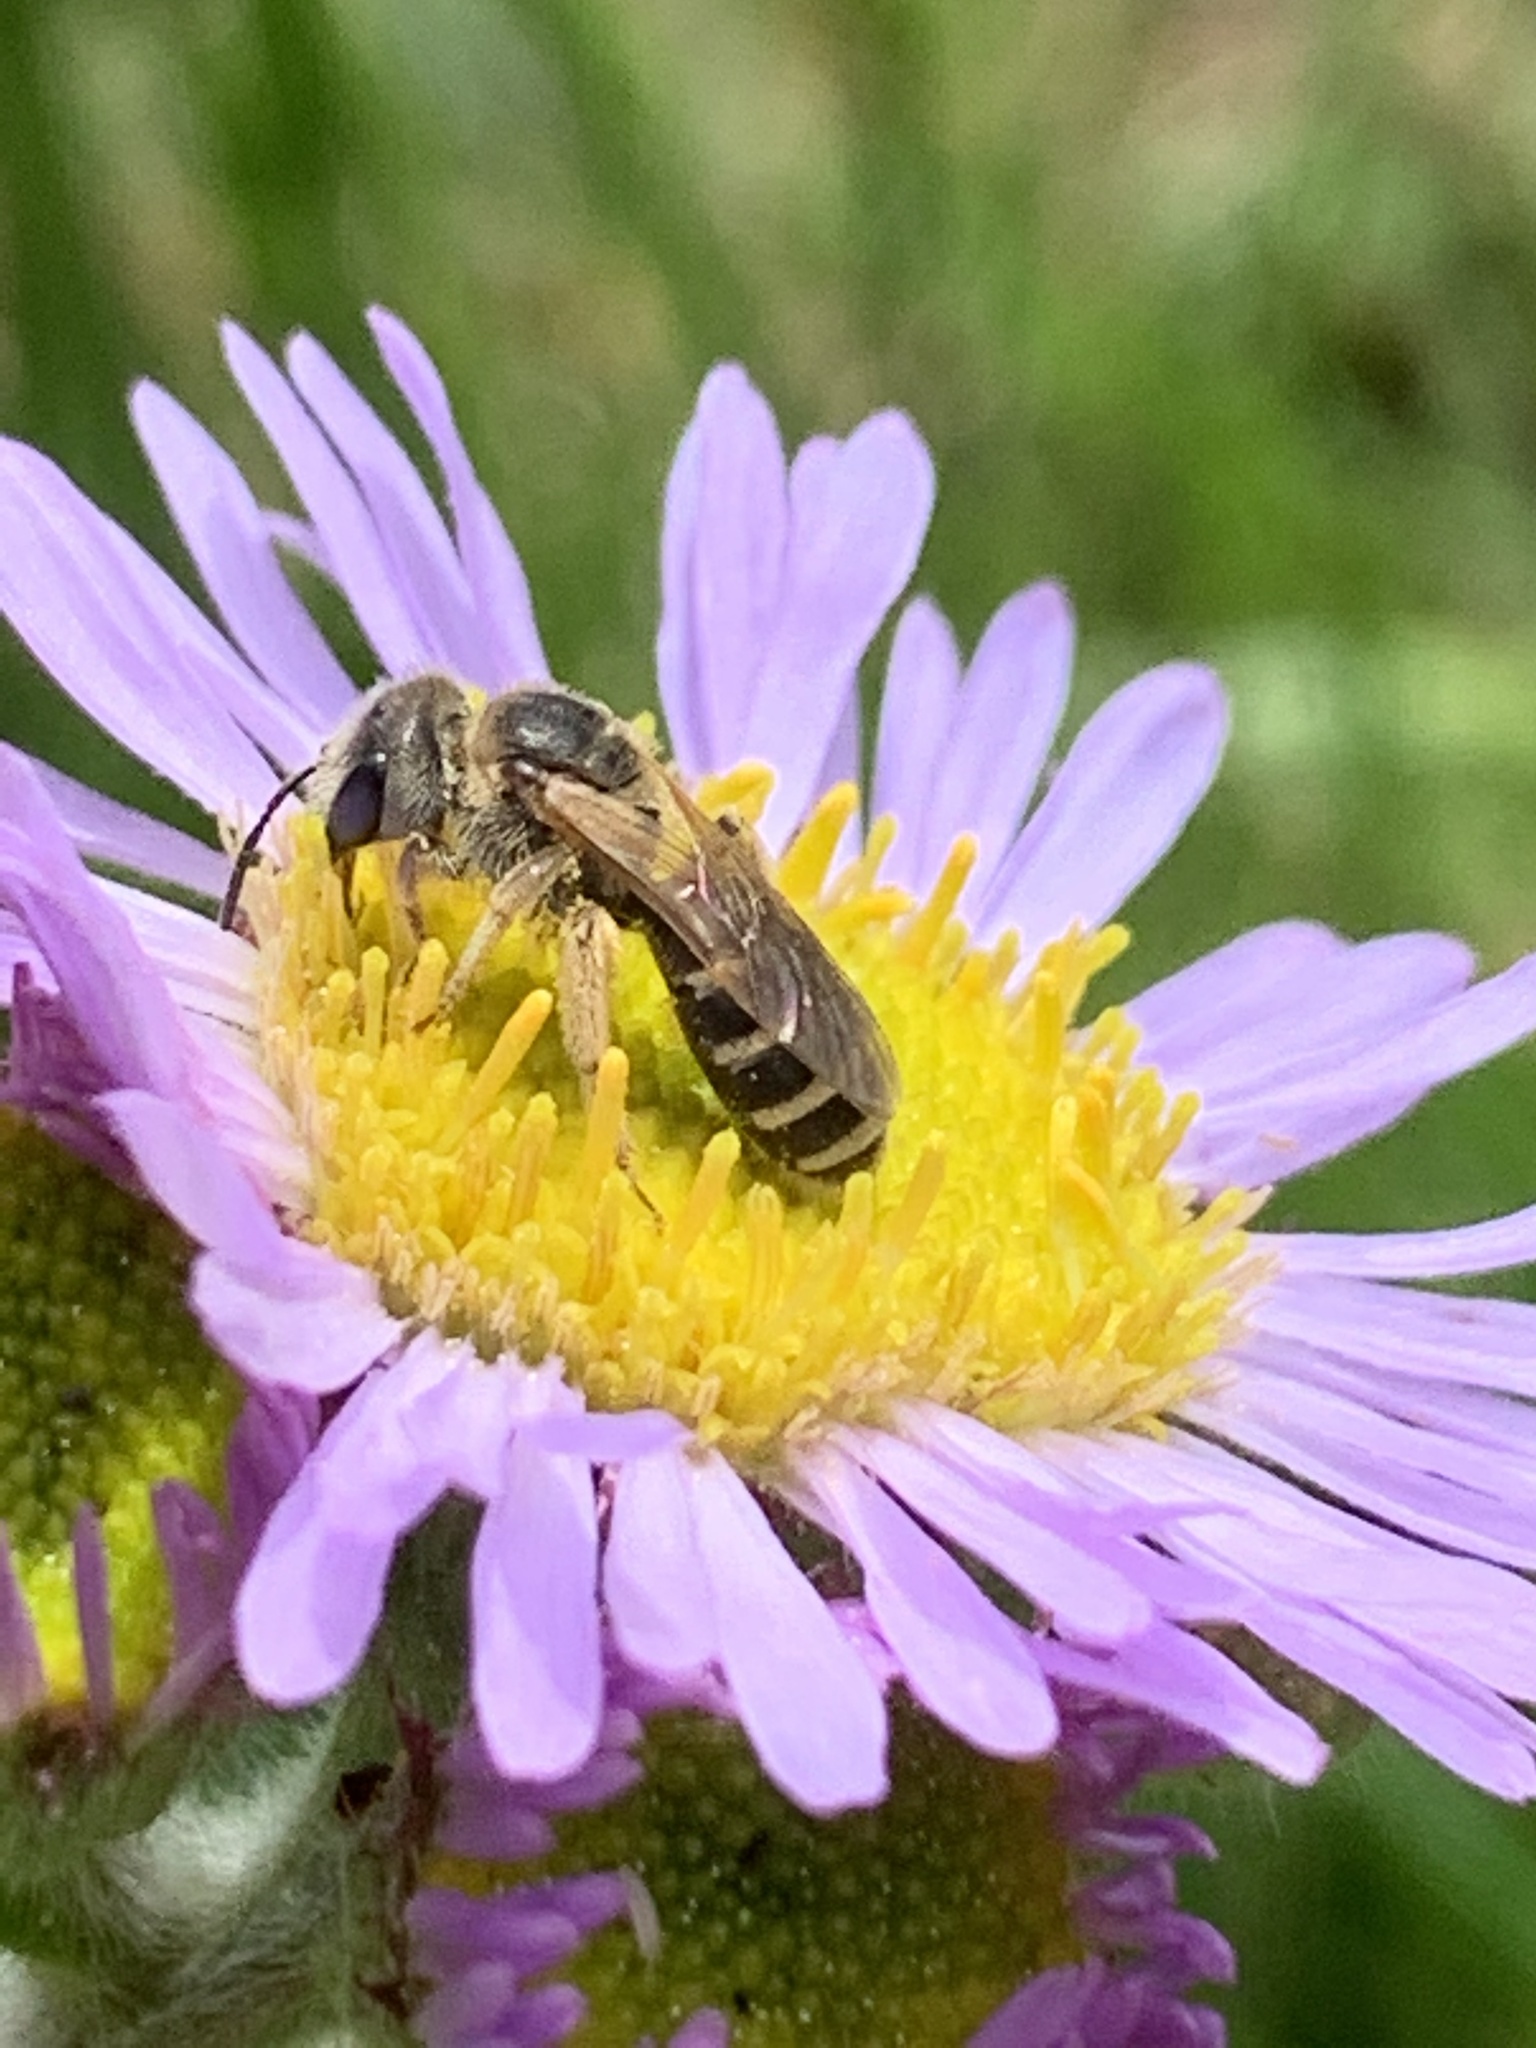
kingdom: Animalia
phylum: Arthropoda
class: Insecta
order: Hymenoptera
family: Halictidae
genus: Halictus
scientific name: Halictus ligatus
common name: Ligated furrow bee
